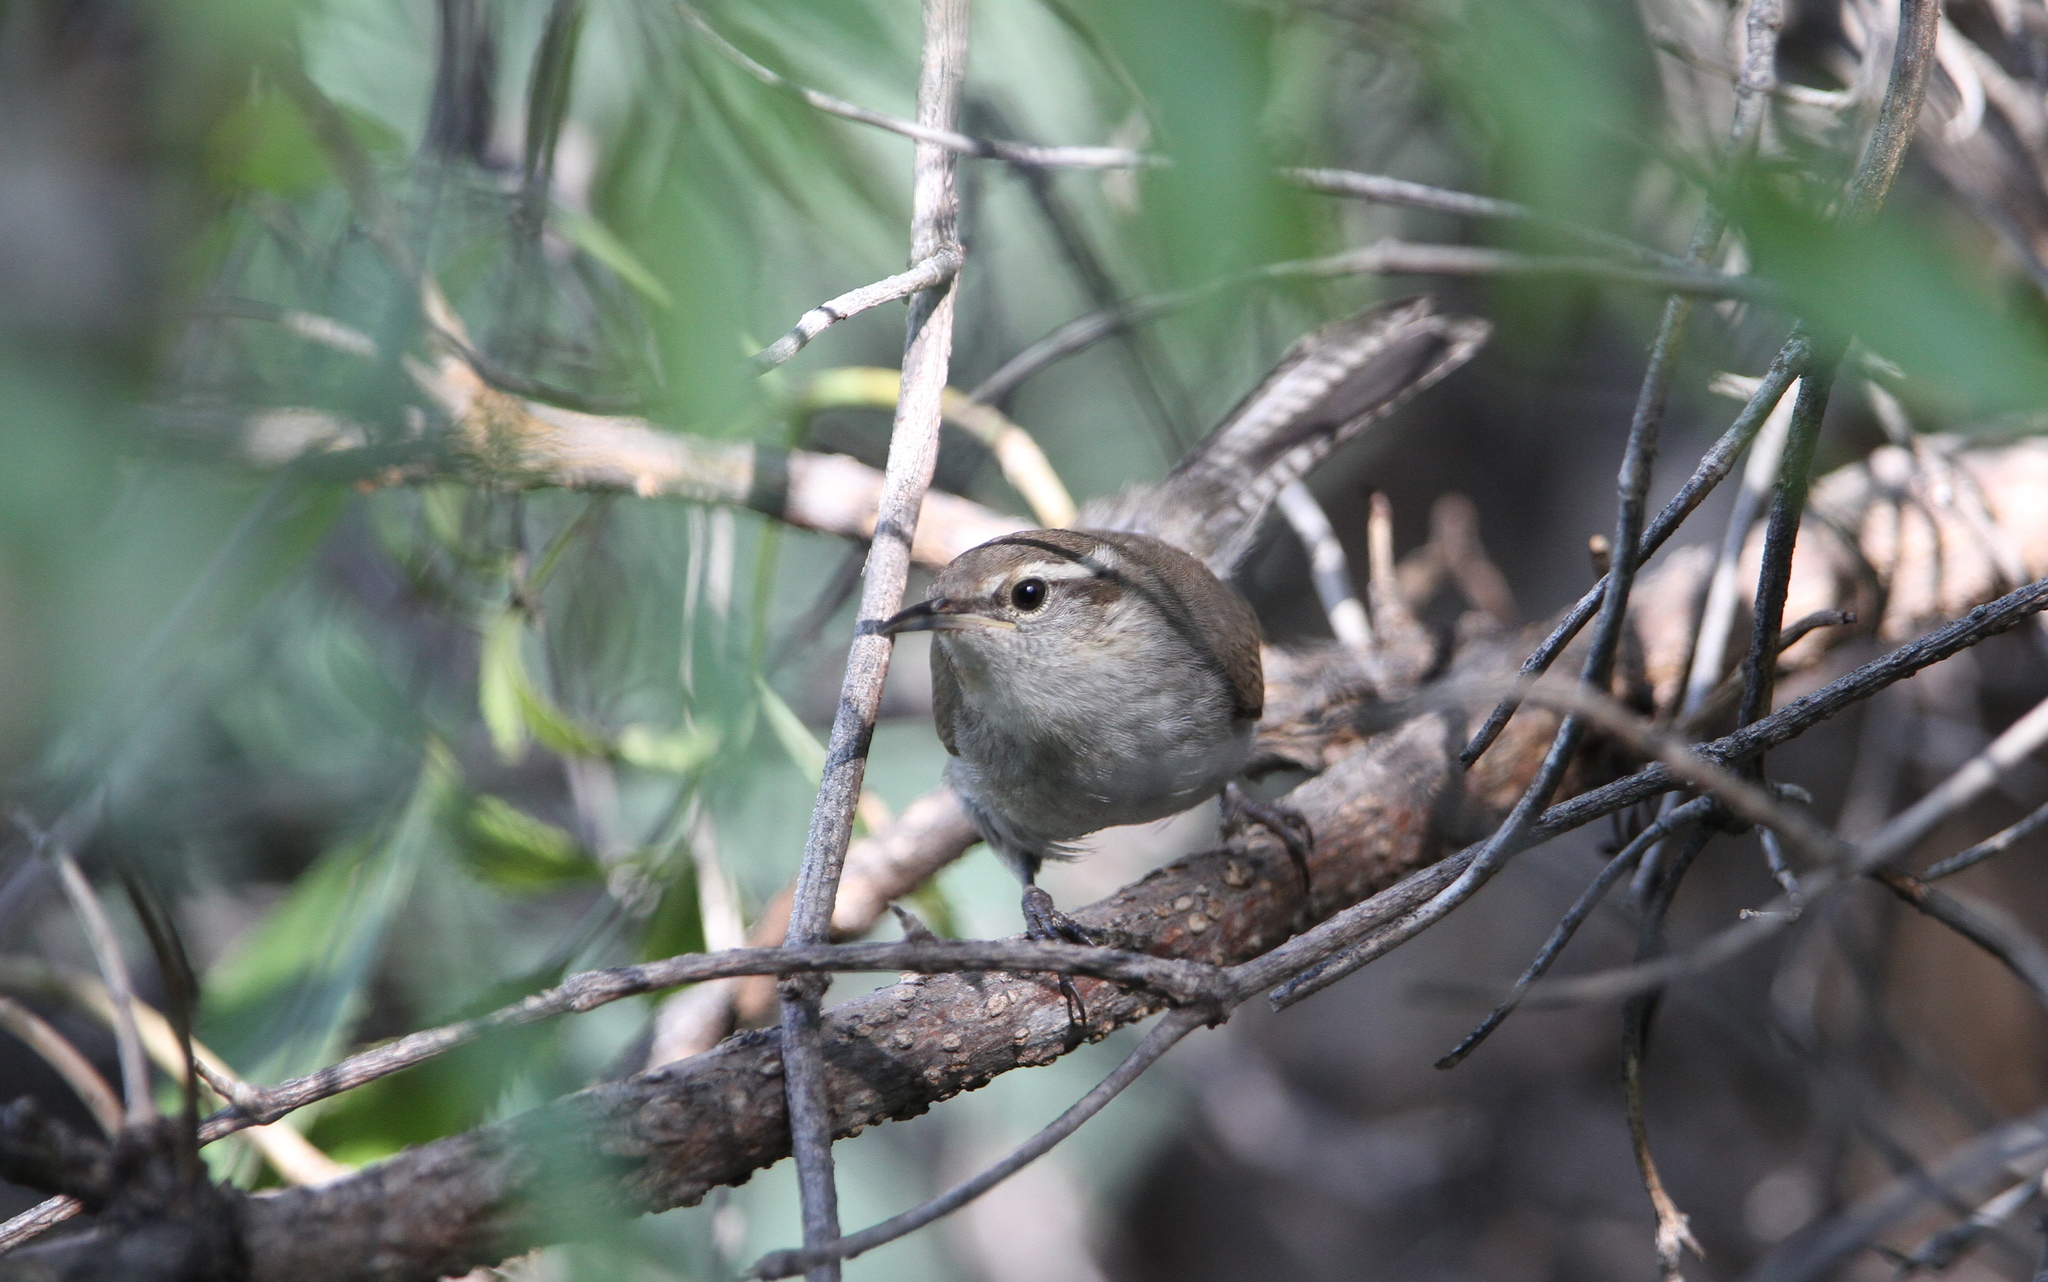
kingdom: Animalia
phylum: Chordata
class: Aves
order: Passeriformes
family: Troglodytidae
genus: Thryomanes
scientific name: Thryomanes bewickii
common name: Bewick's wren
